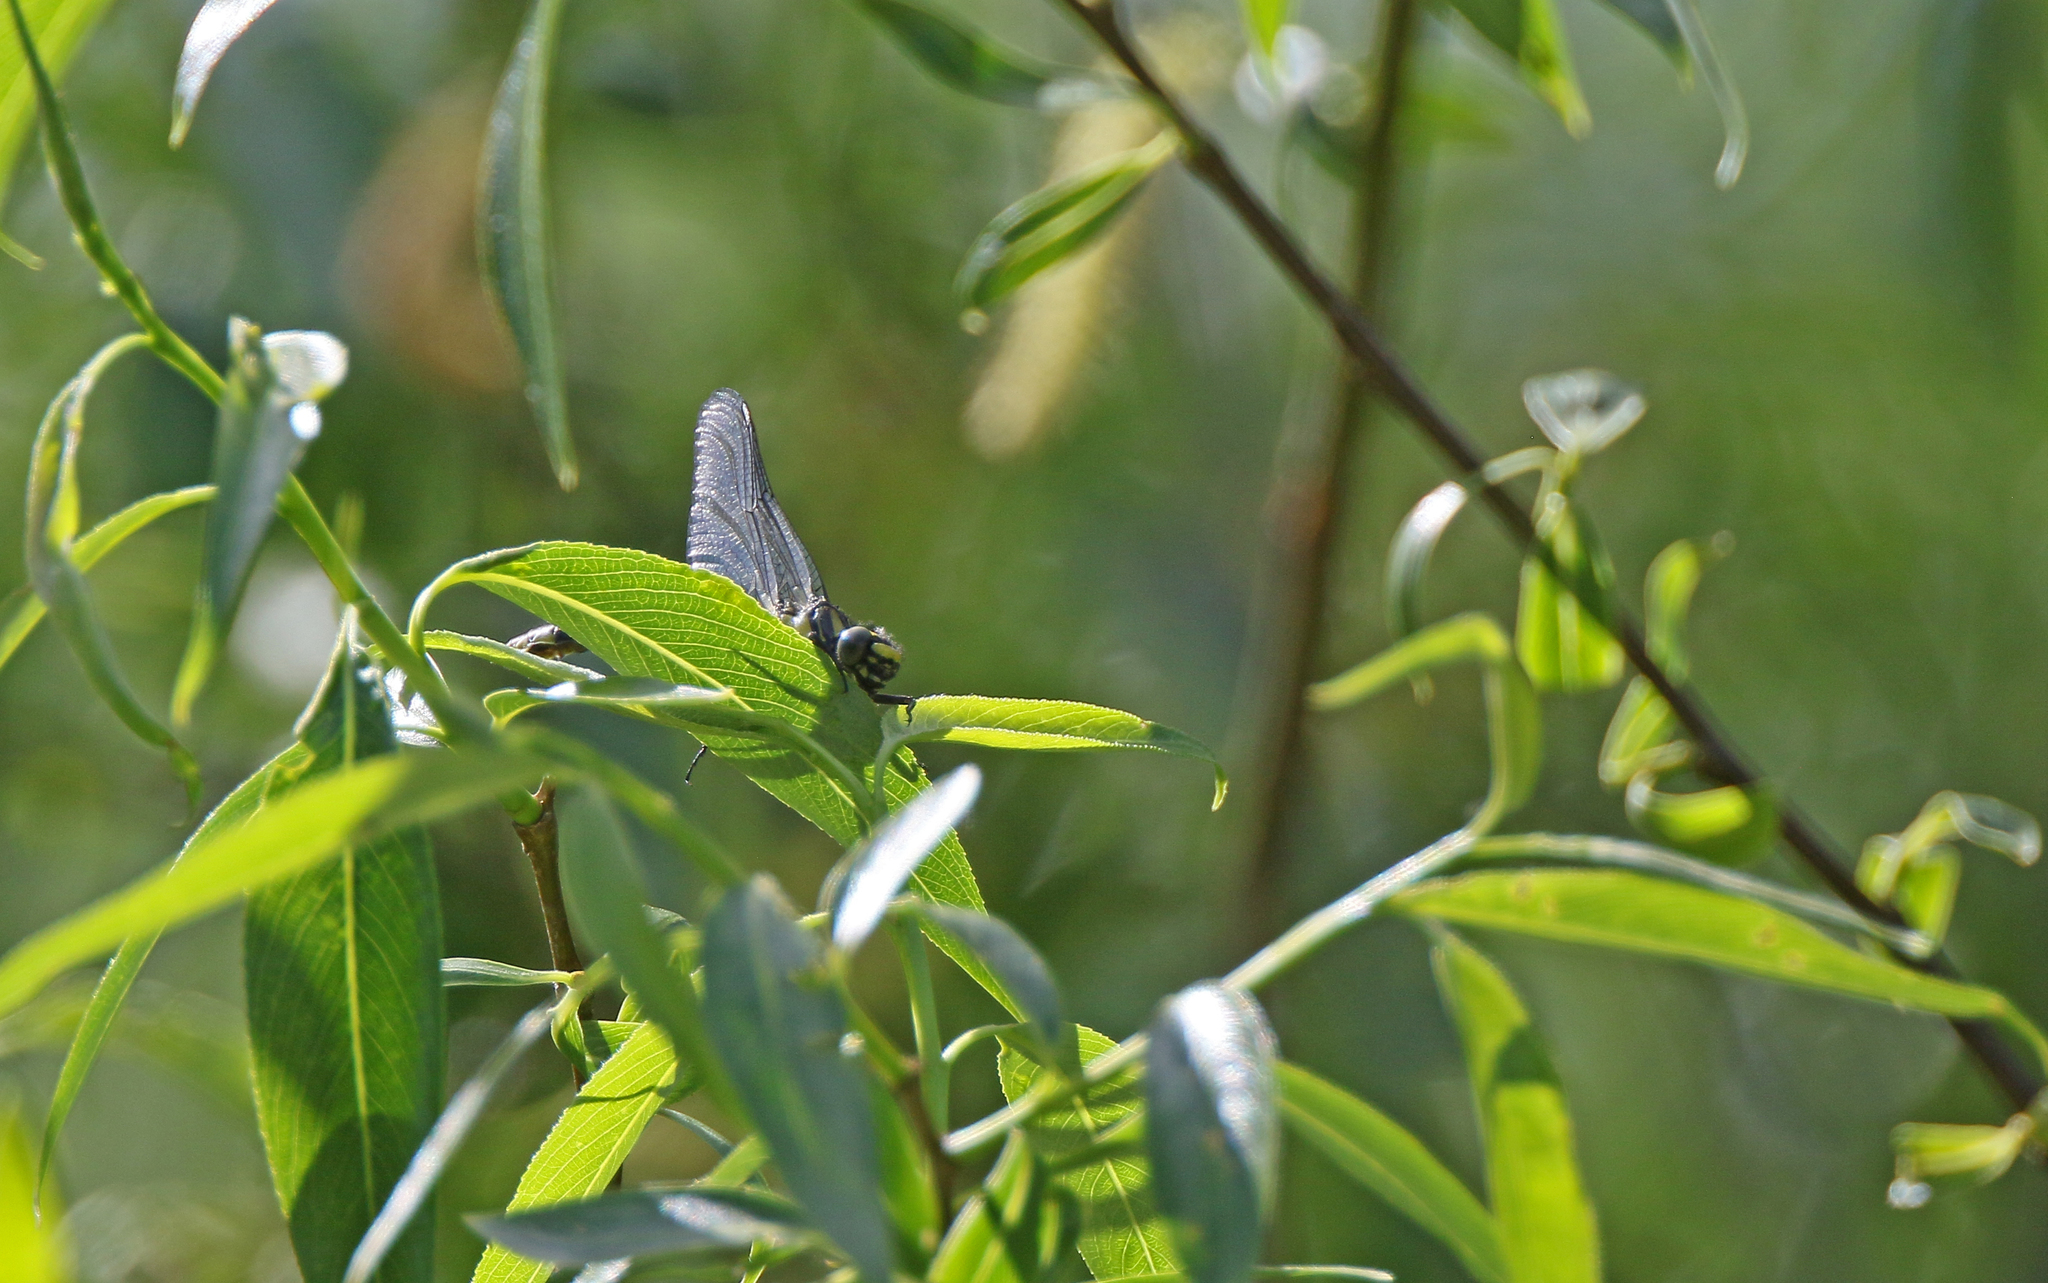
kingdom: Animalia
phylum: Arthropoda
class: Insecta
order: Odonata
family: Gomphidae
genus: Gomphus
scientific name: Gomphus vulgatissimus
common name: Club-tailed dragonfly
